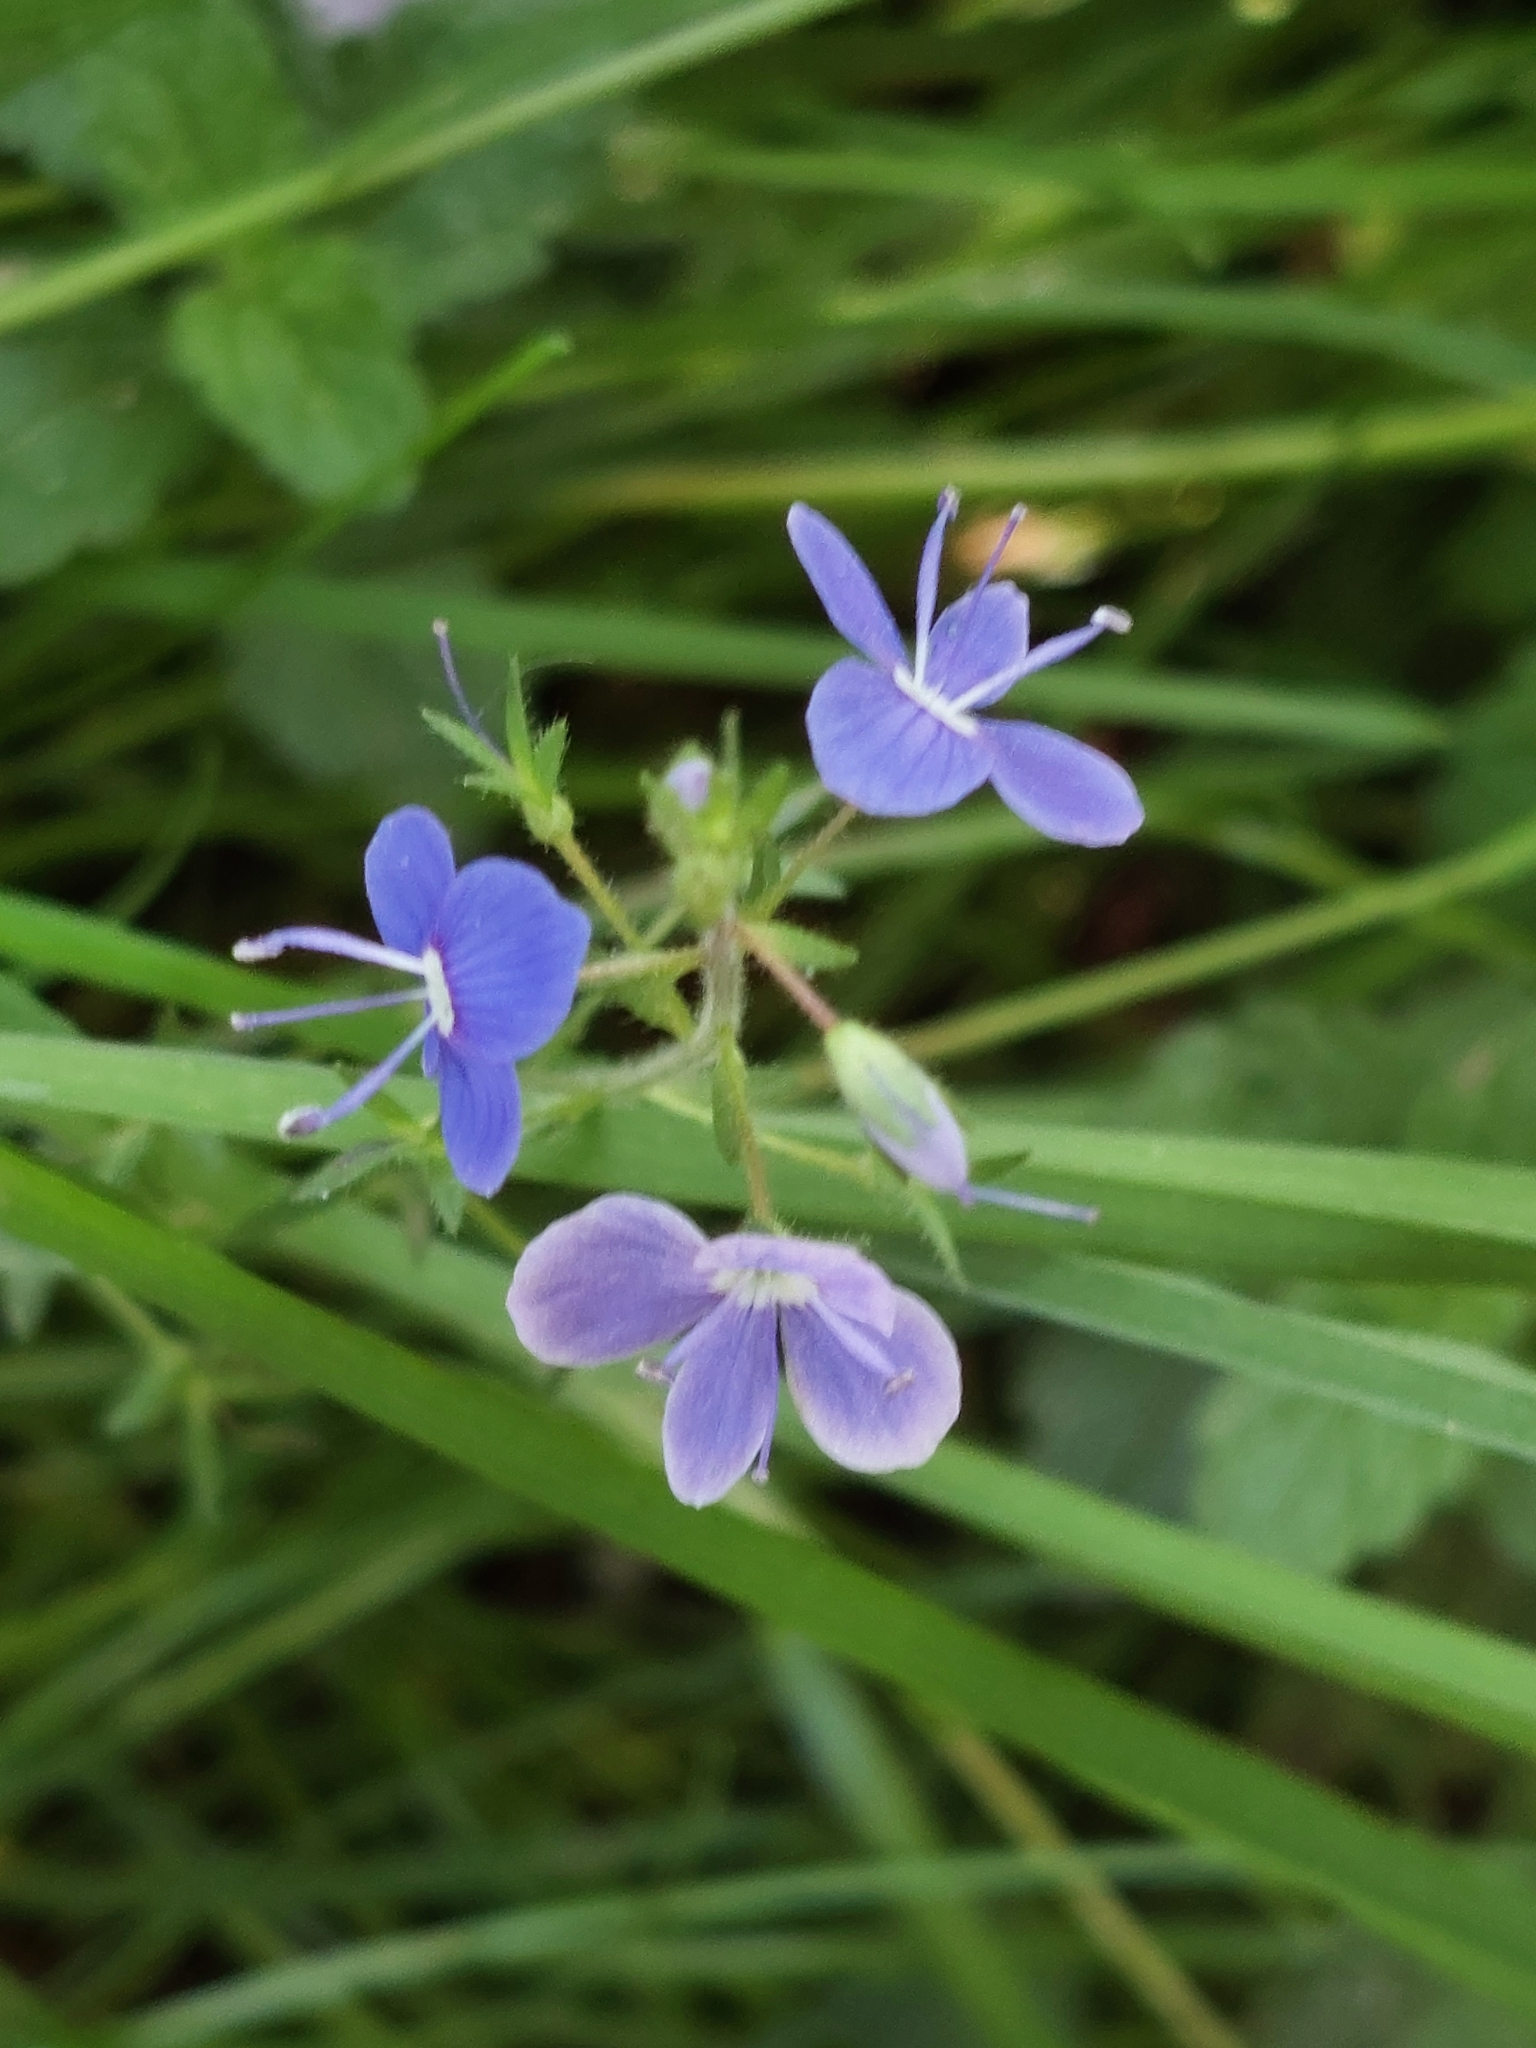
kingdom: Plantae
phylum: Tracheophyta
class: Magnoliopsida
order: Lamiales
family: Plantaginaceae
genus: Veronica
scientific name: Veronica chamaedrys
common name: Germander speedwell
